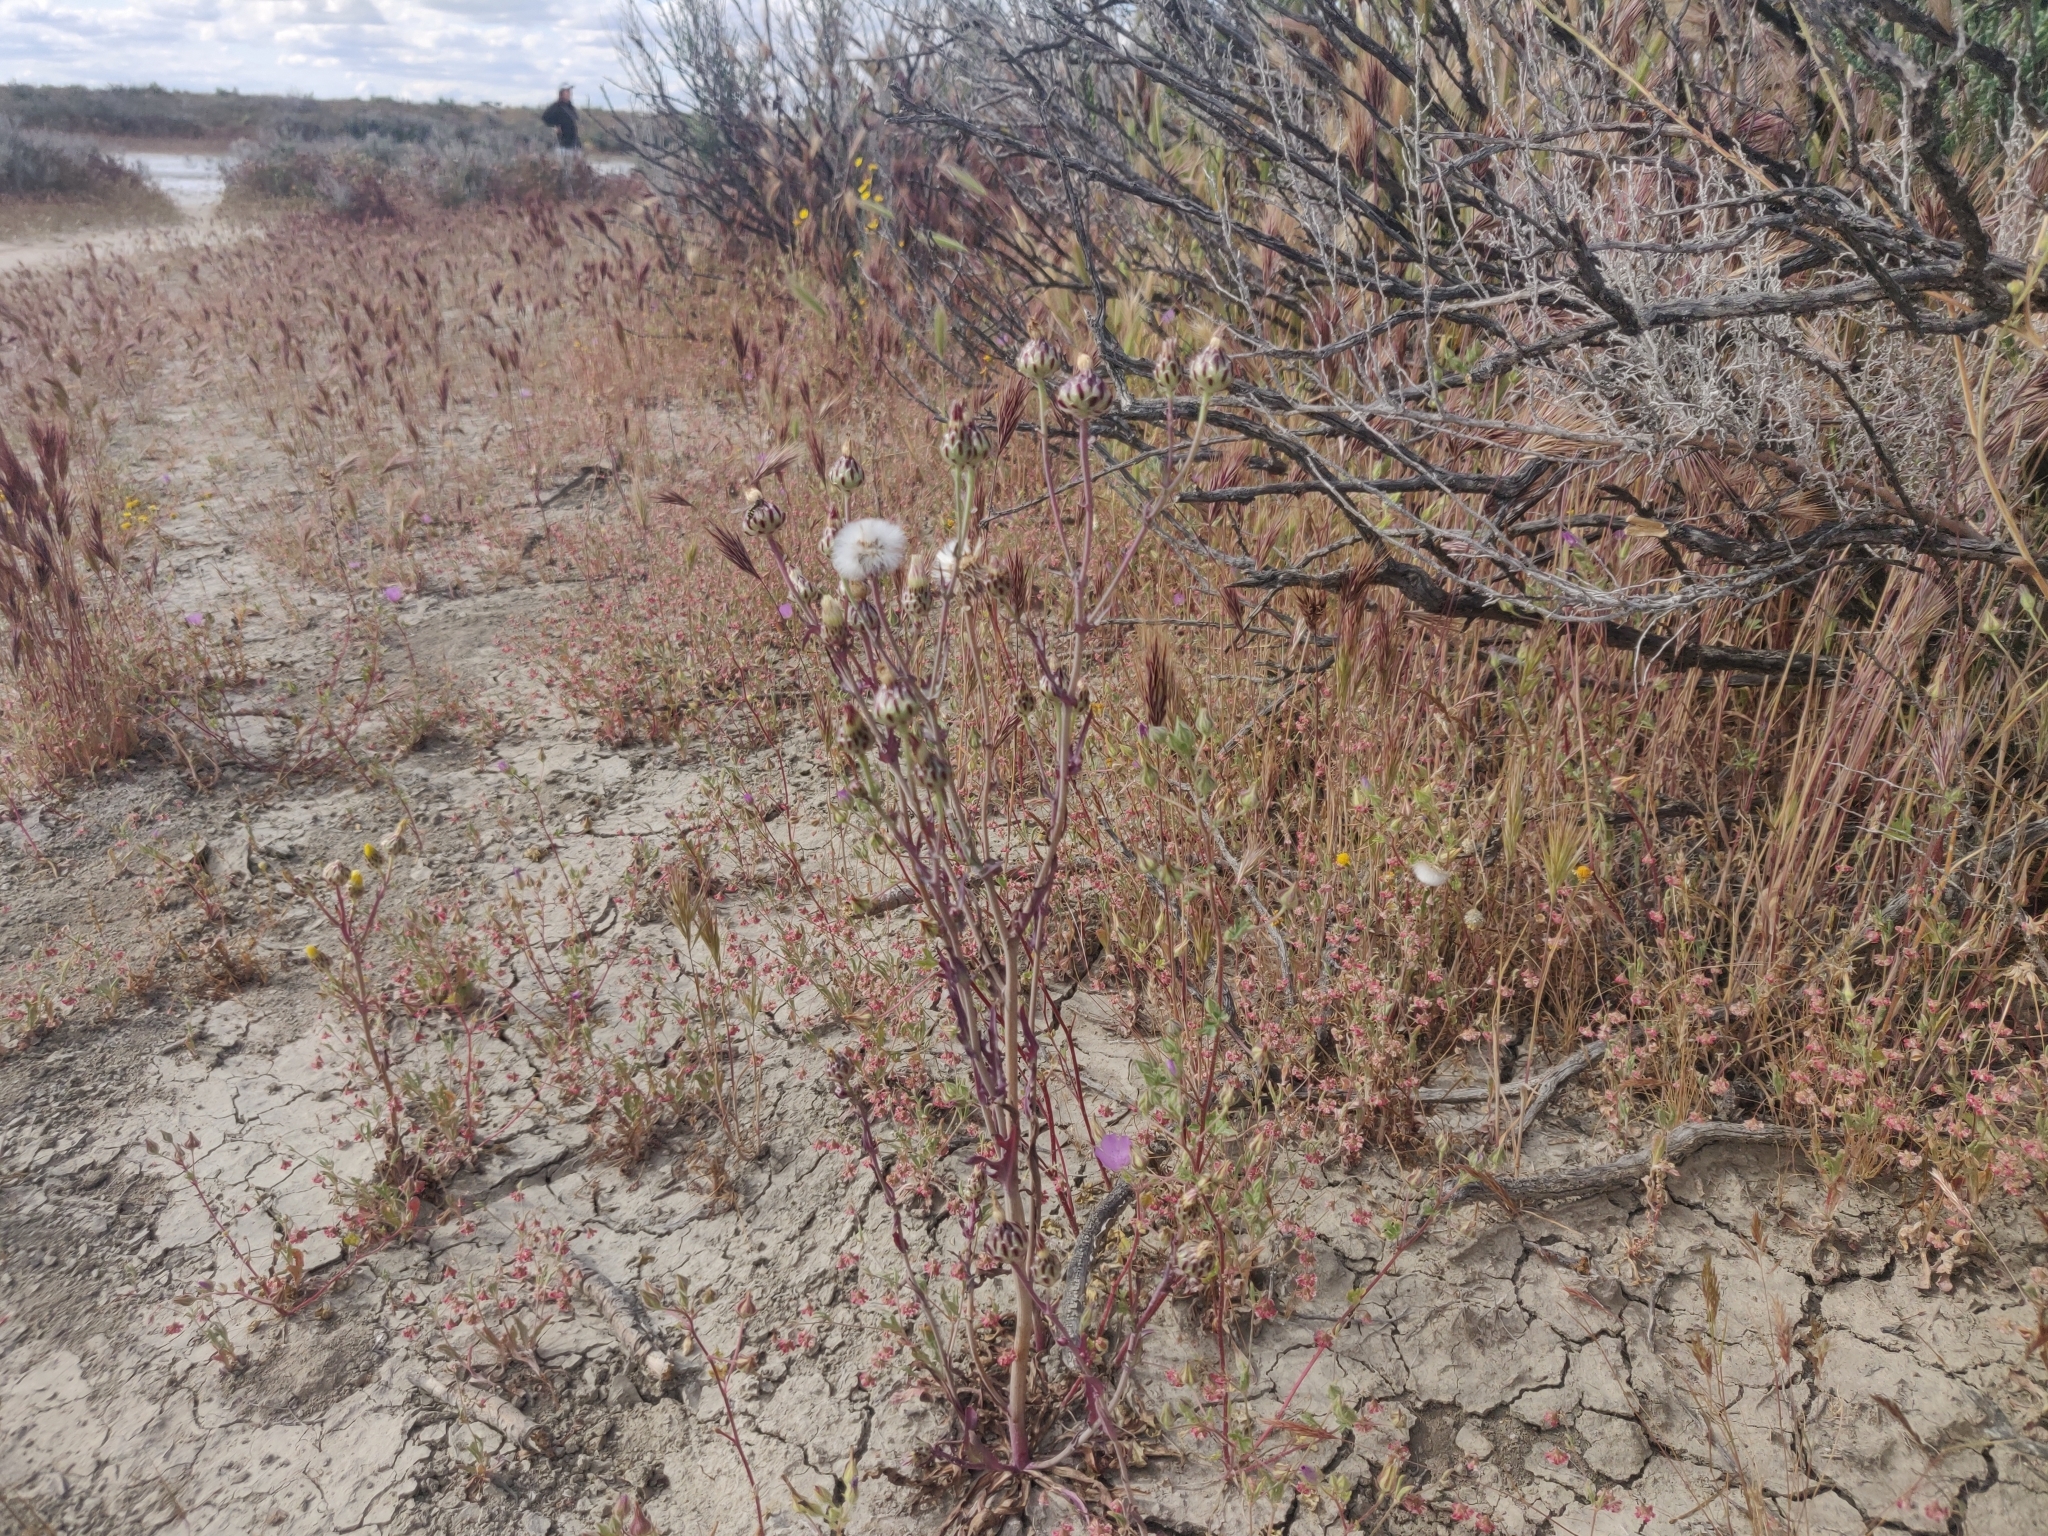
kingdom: Plantae
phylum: Tracheophyta
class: Magnoliopsida
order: Asterales
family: Asteraceae
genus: Malacothrix
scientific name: Malacothrix coulteri
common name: Snake's-head
